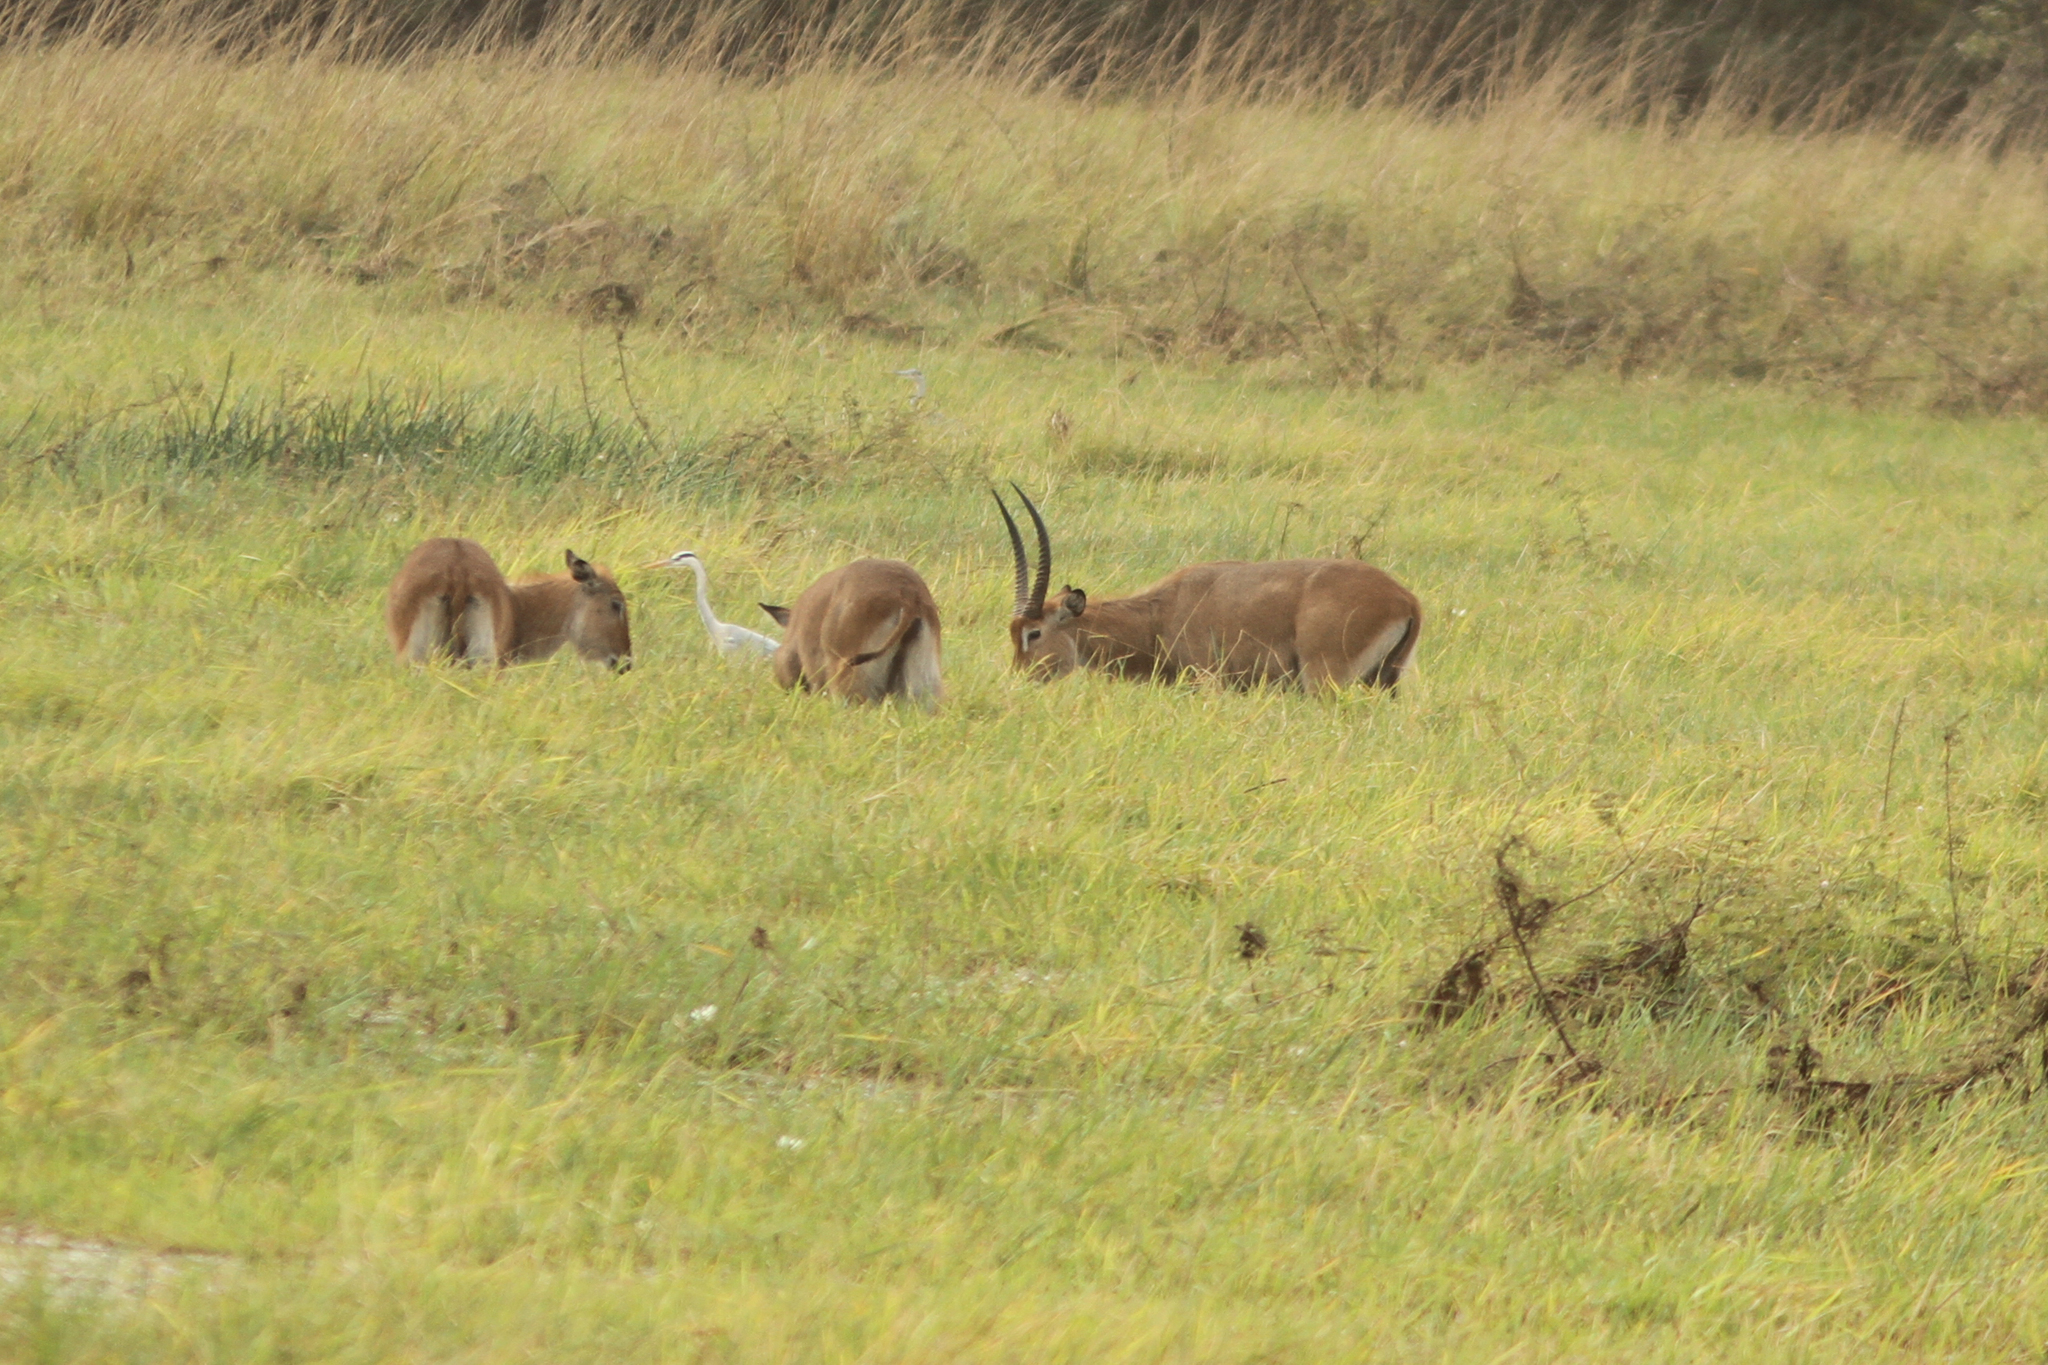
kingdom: Animalia
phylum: Chordata
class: Mammalia
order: Artiodactyla
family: Bovidae
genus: Kobus
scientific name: Kobus ellipsiprymnus
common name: Waterbuck
